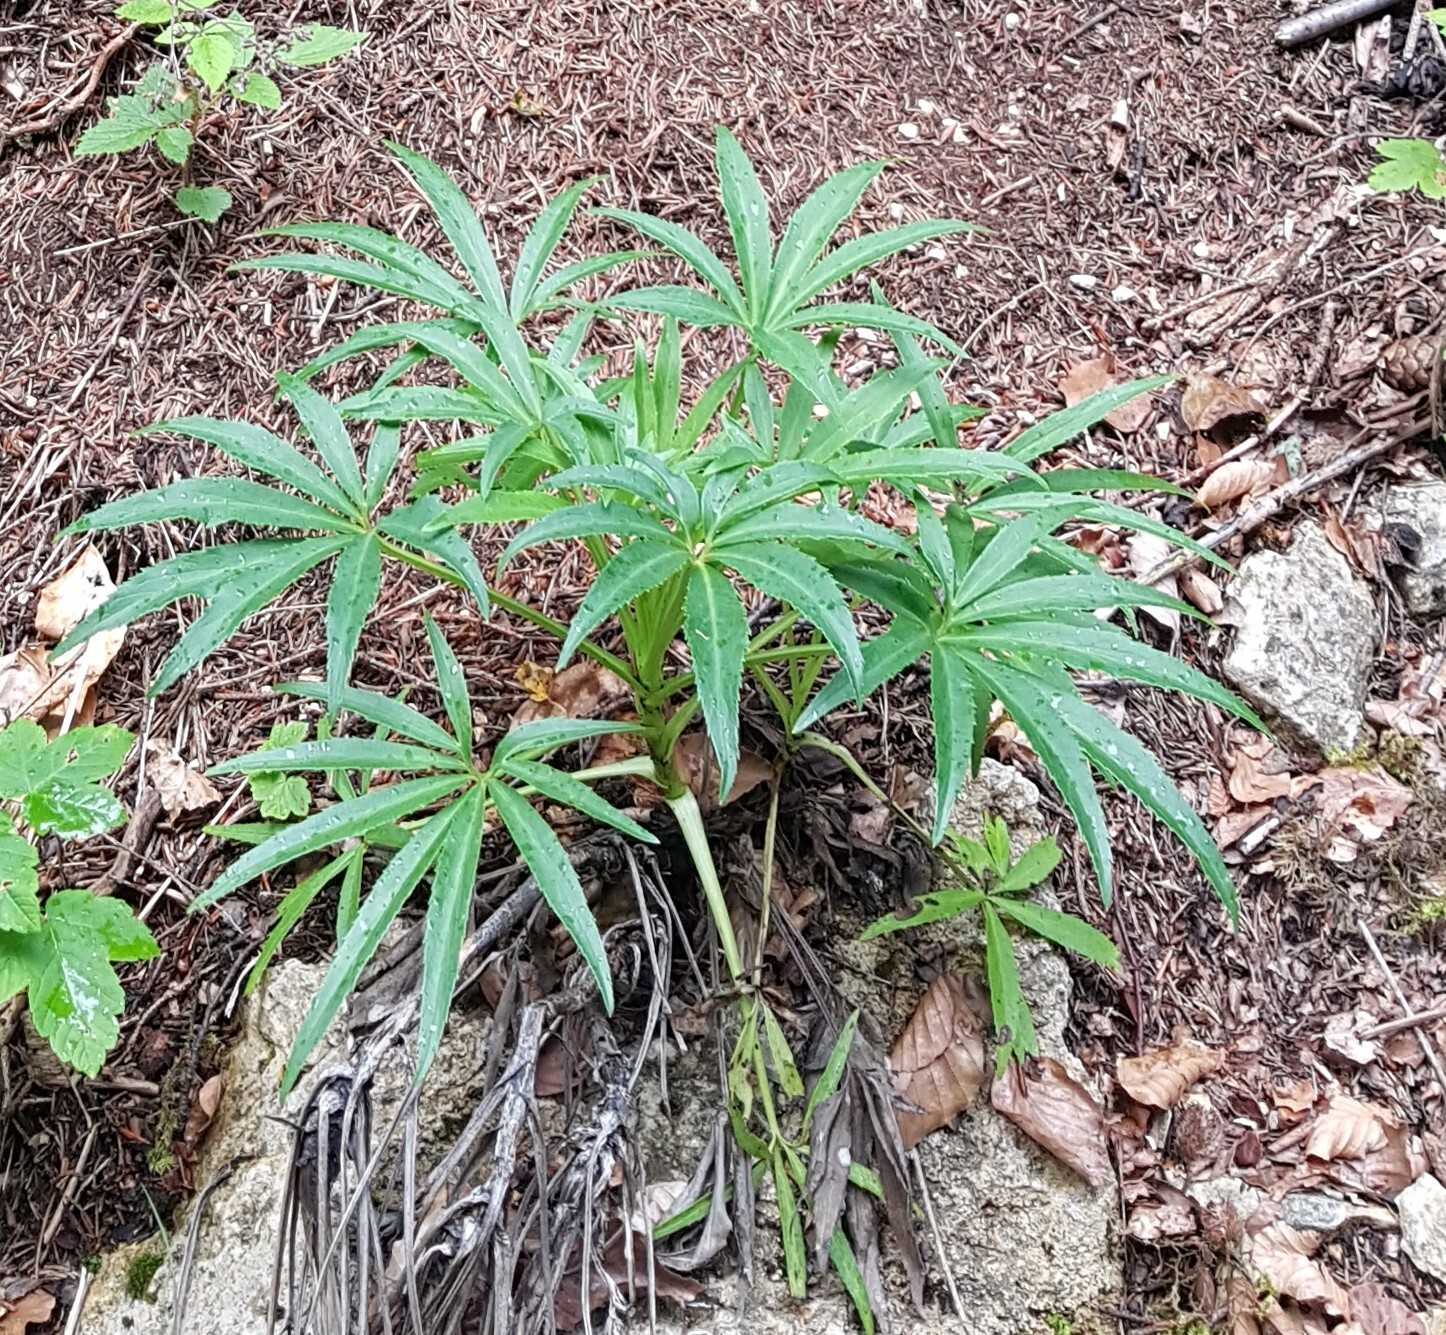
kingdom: Plantae
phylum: Tracheophyta
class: Magnoliopsida
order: Ranunculales
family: Ranunculaceae
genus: Helleborus
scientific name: Helleborus foetidus
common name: Stinking hellebore
